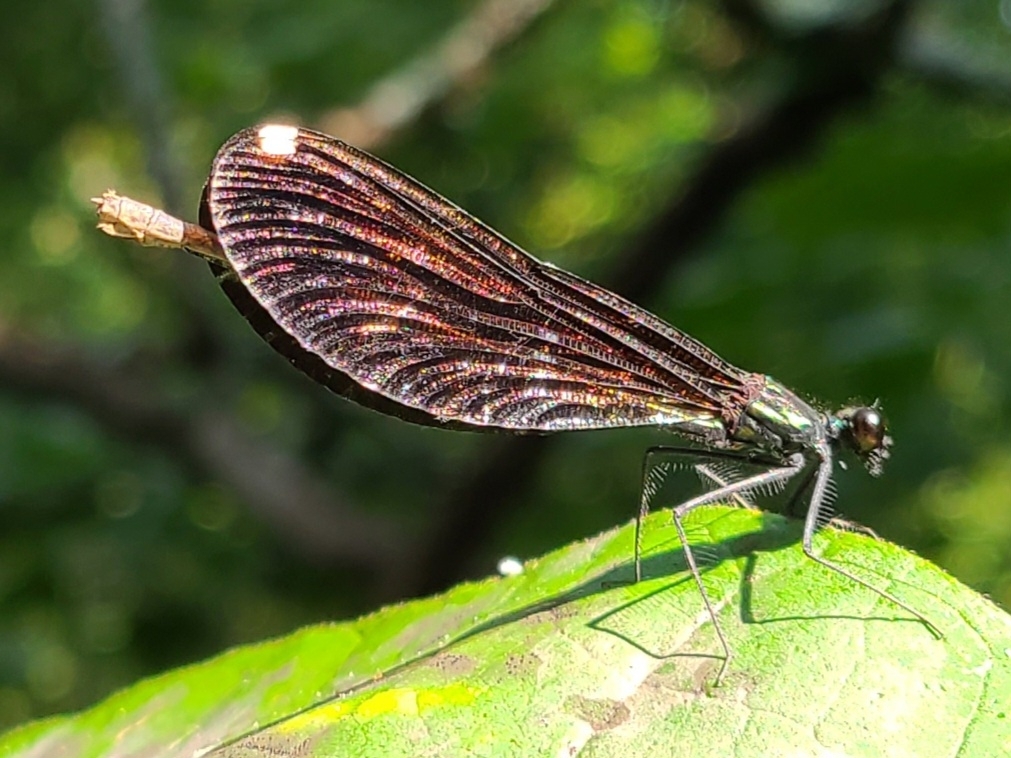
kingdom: Animalia
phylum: Arthropoda
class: Insecta
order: Odonata
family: Calopterygidae
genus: Calopteryx
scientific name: Calopteryx maculata
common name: Ebony jewelwing
